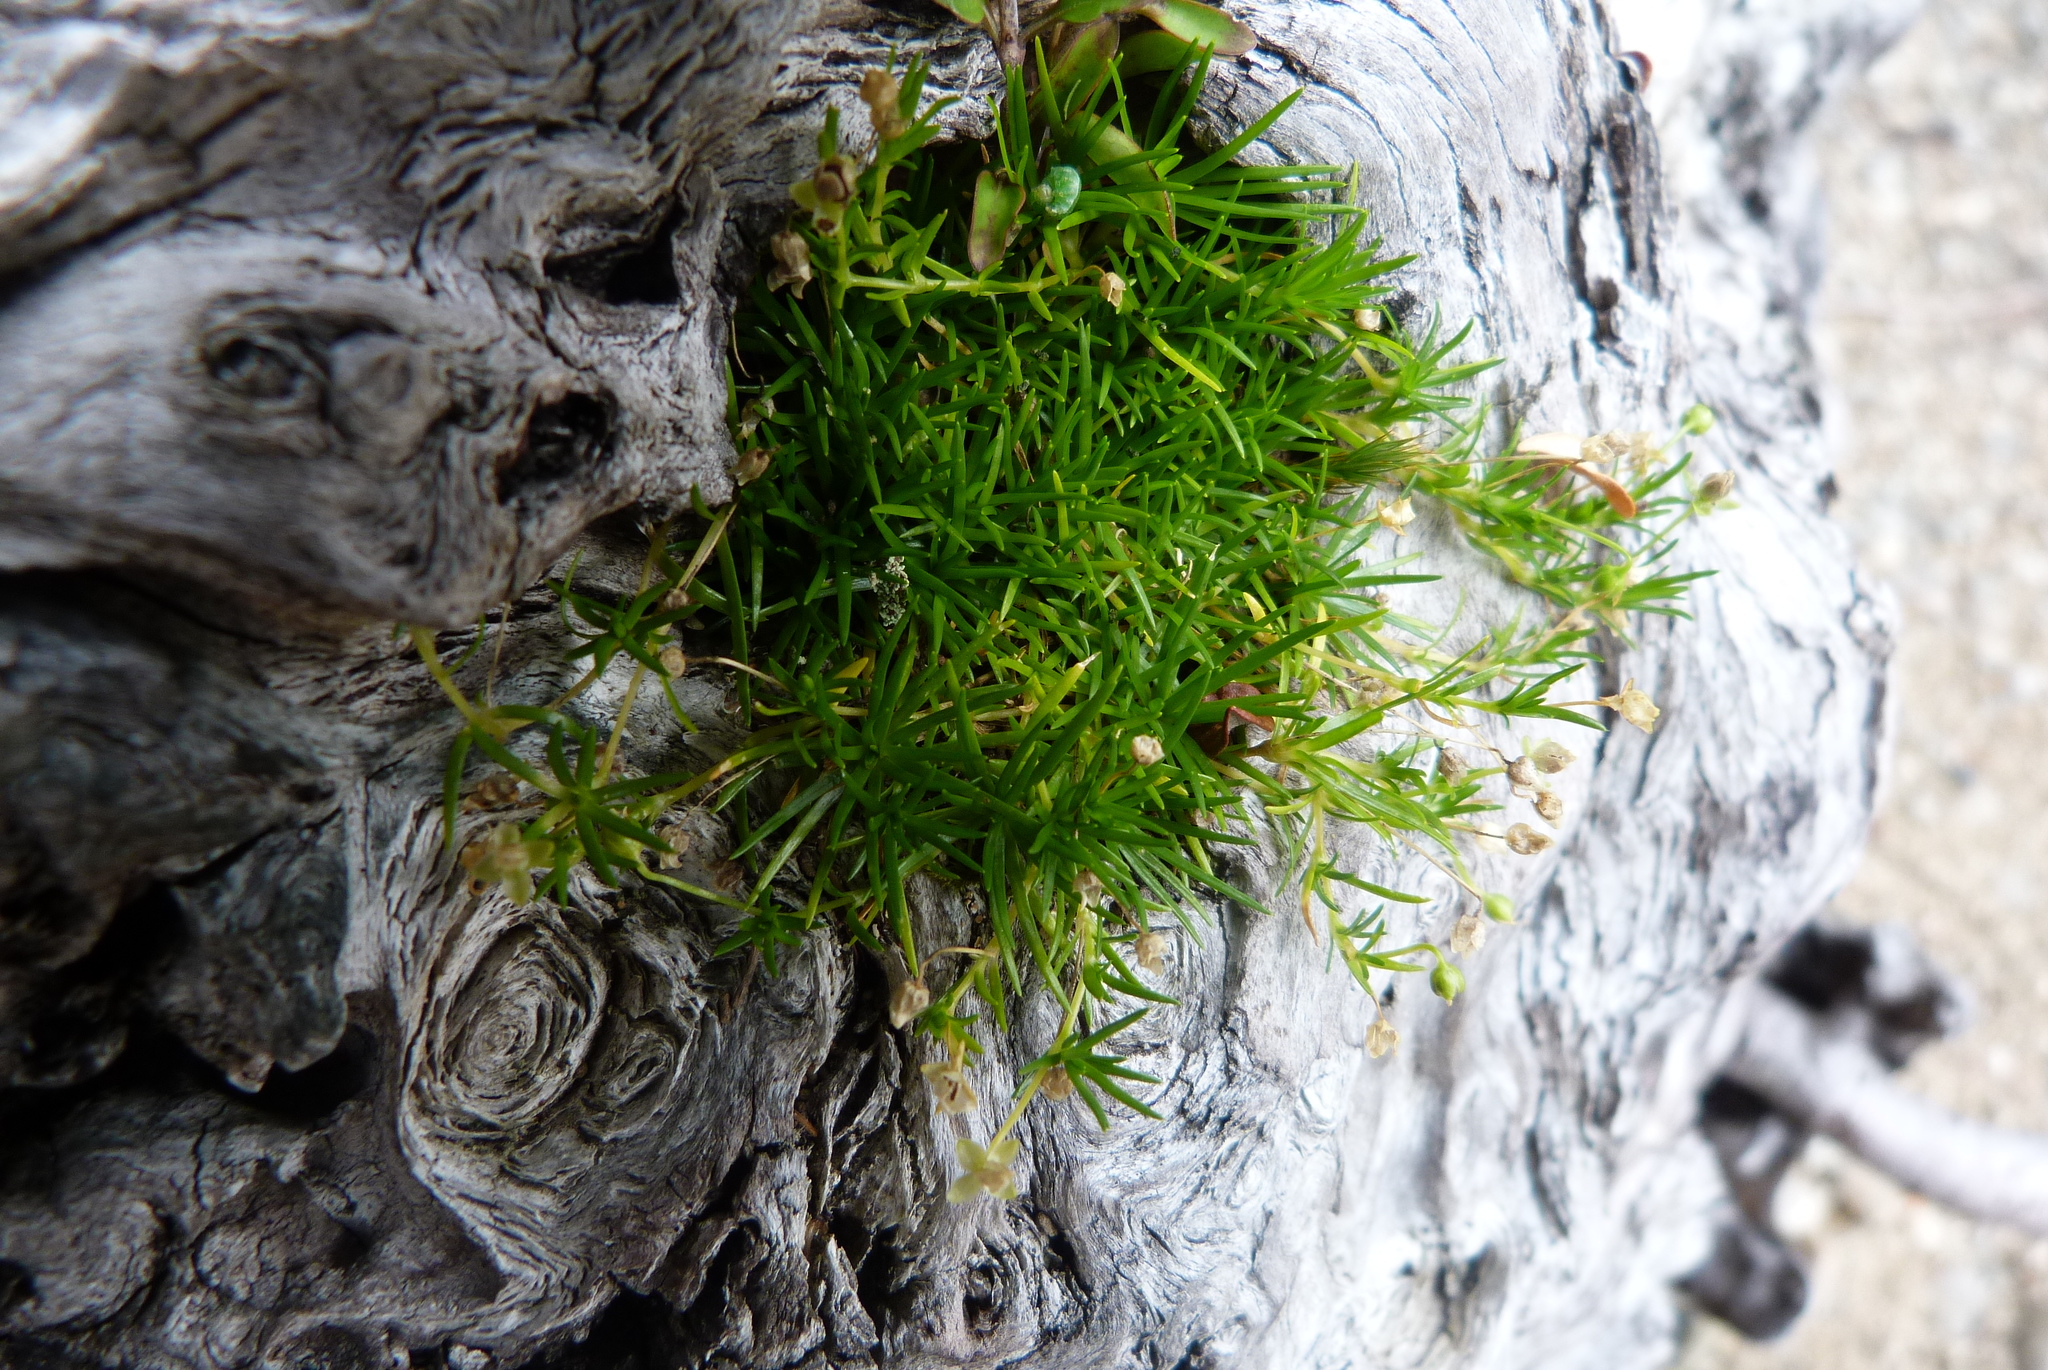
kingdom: Plantae
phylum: Tracheophyta
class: Magnoliopsida
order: Caryophyllales
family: Caryophyllaceae
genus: Sagina
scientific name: Sagina procumbens
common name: Procumbent pearlwort
